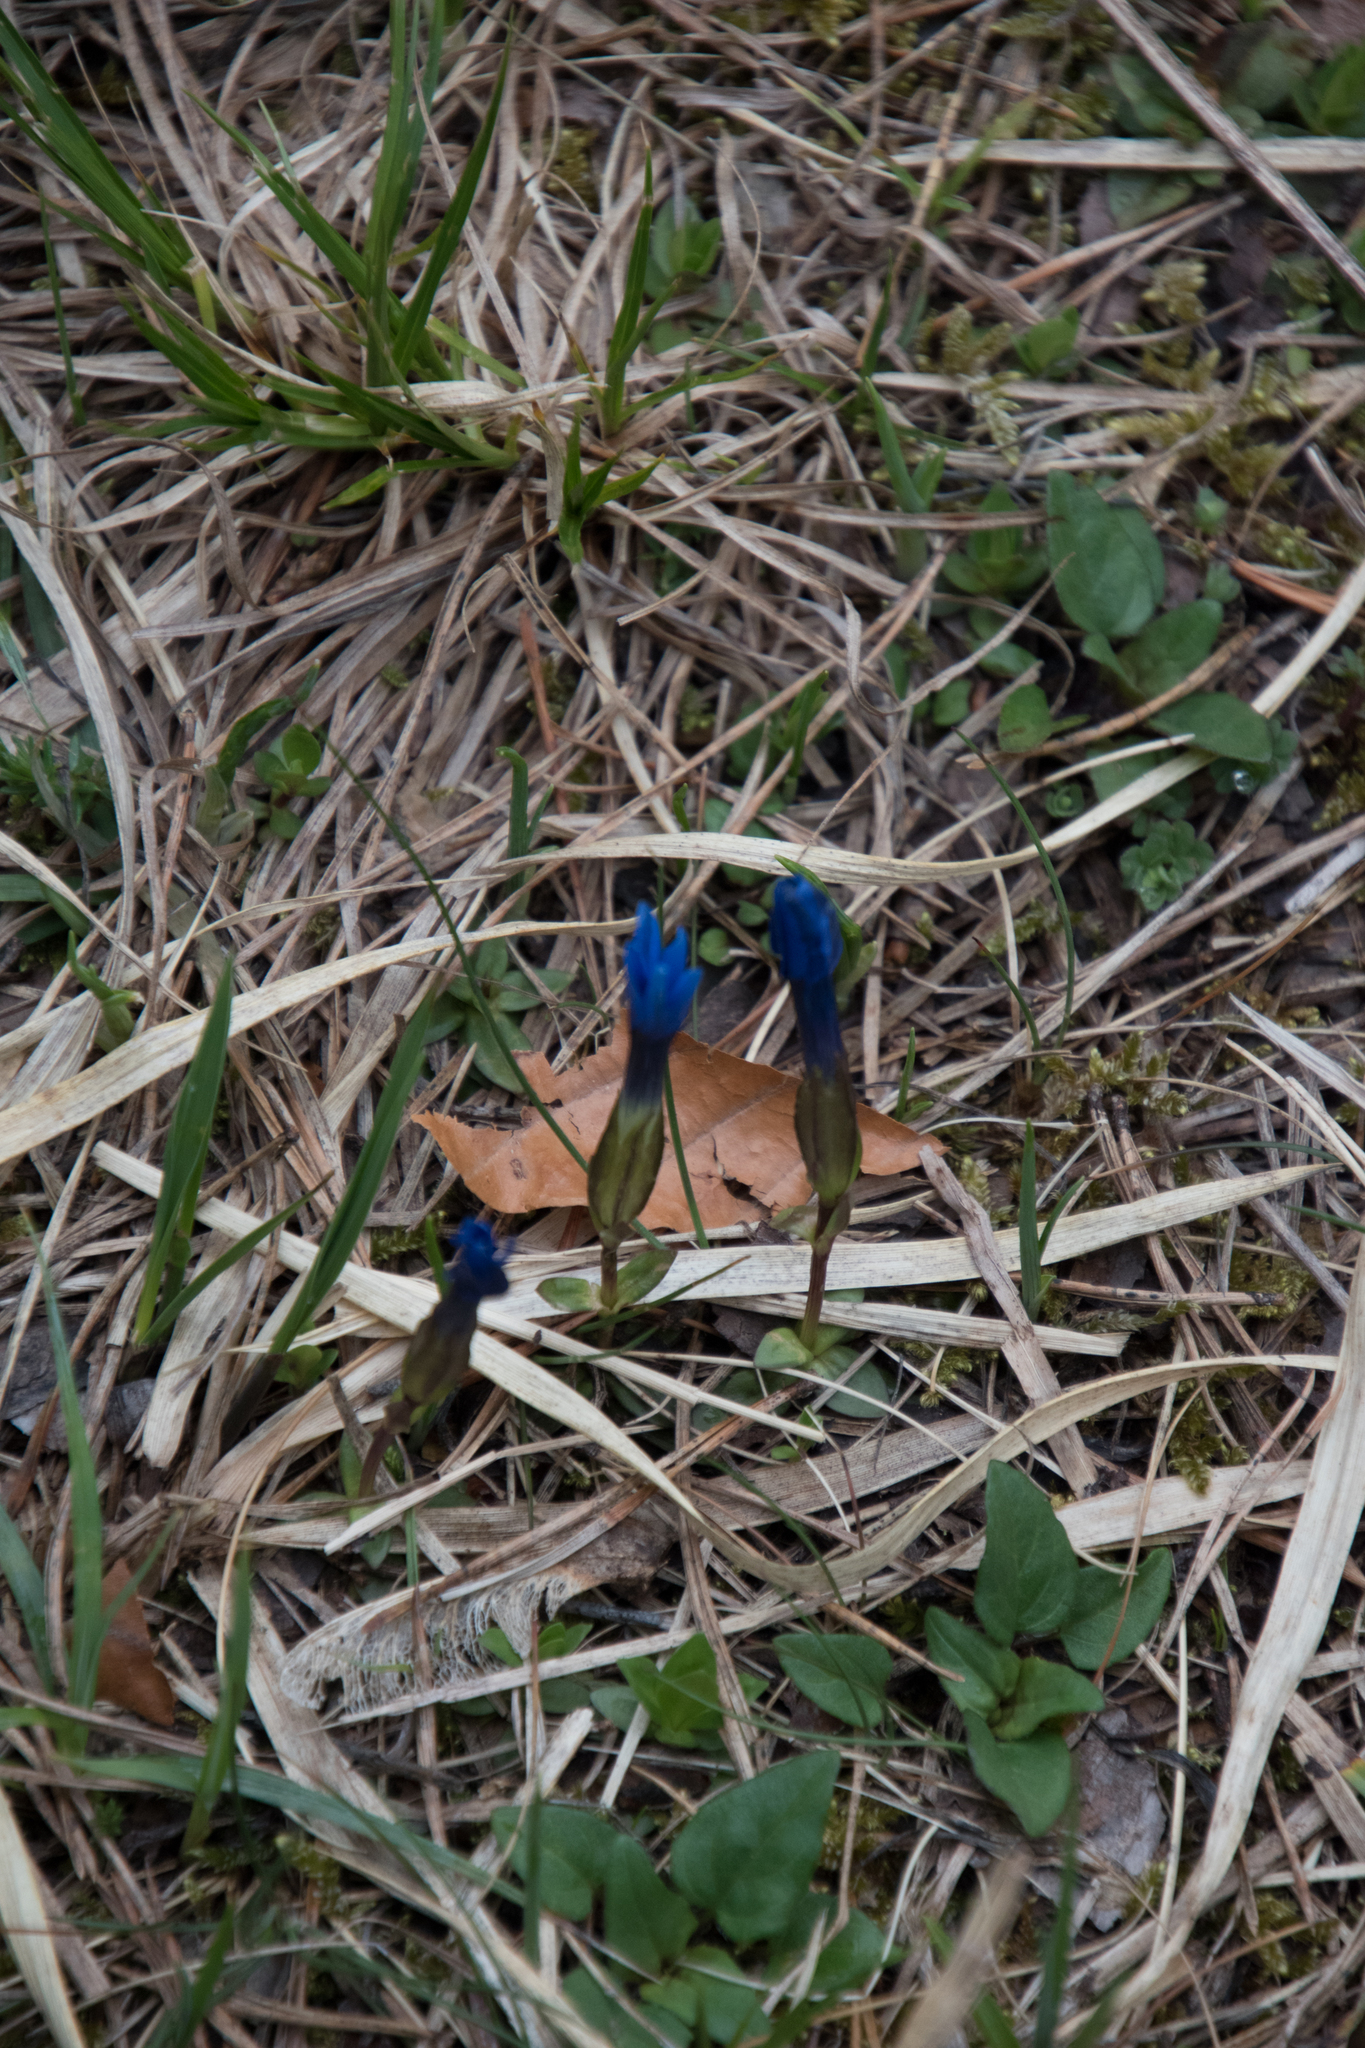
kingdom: Plantae
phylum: Tracheophyta
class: Magnoliopsida
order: Gentianales
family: Gentianaceae
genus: Gentiana
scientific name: Gentiana verna
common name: Spring gentian
